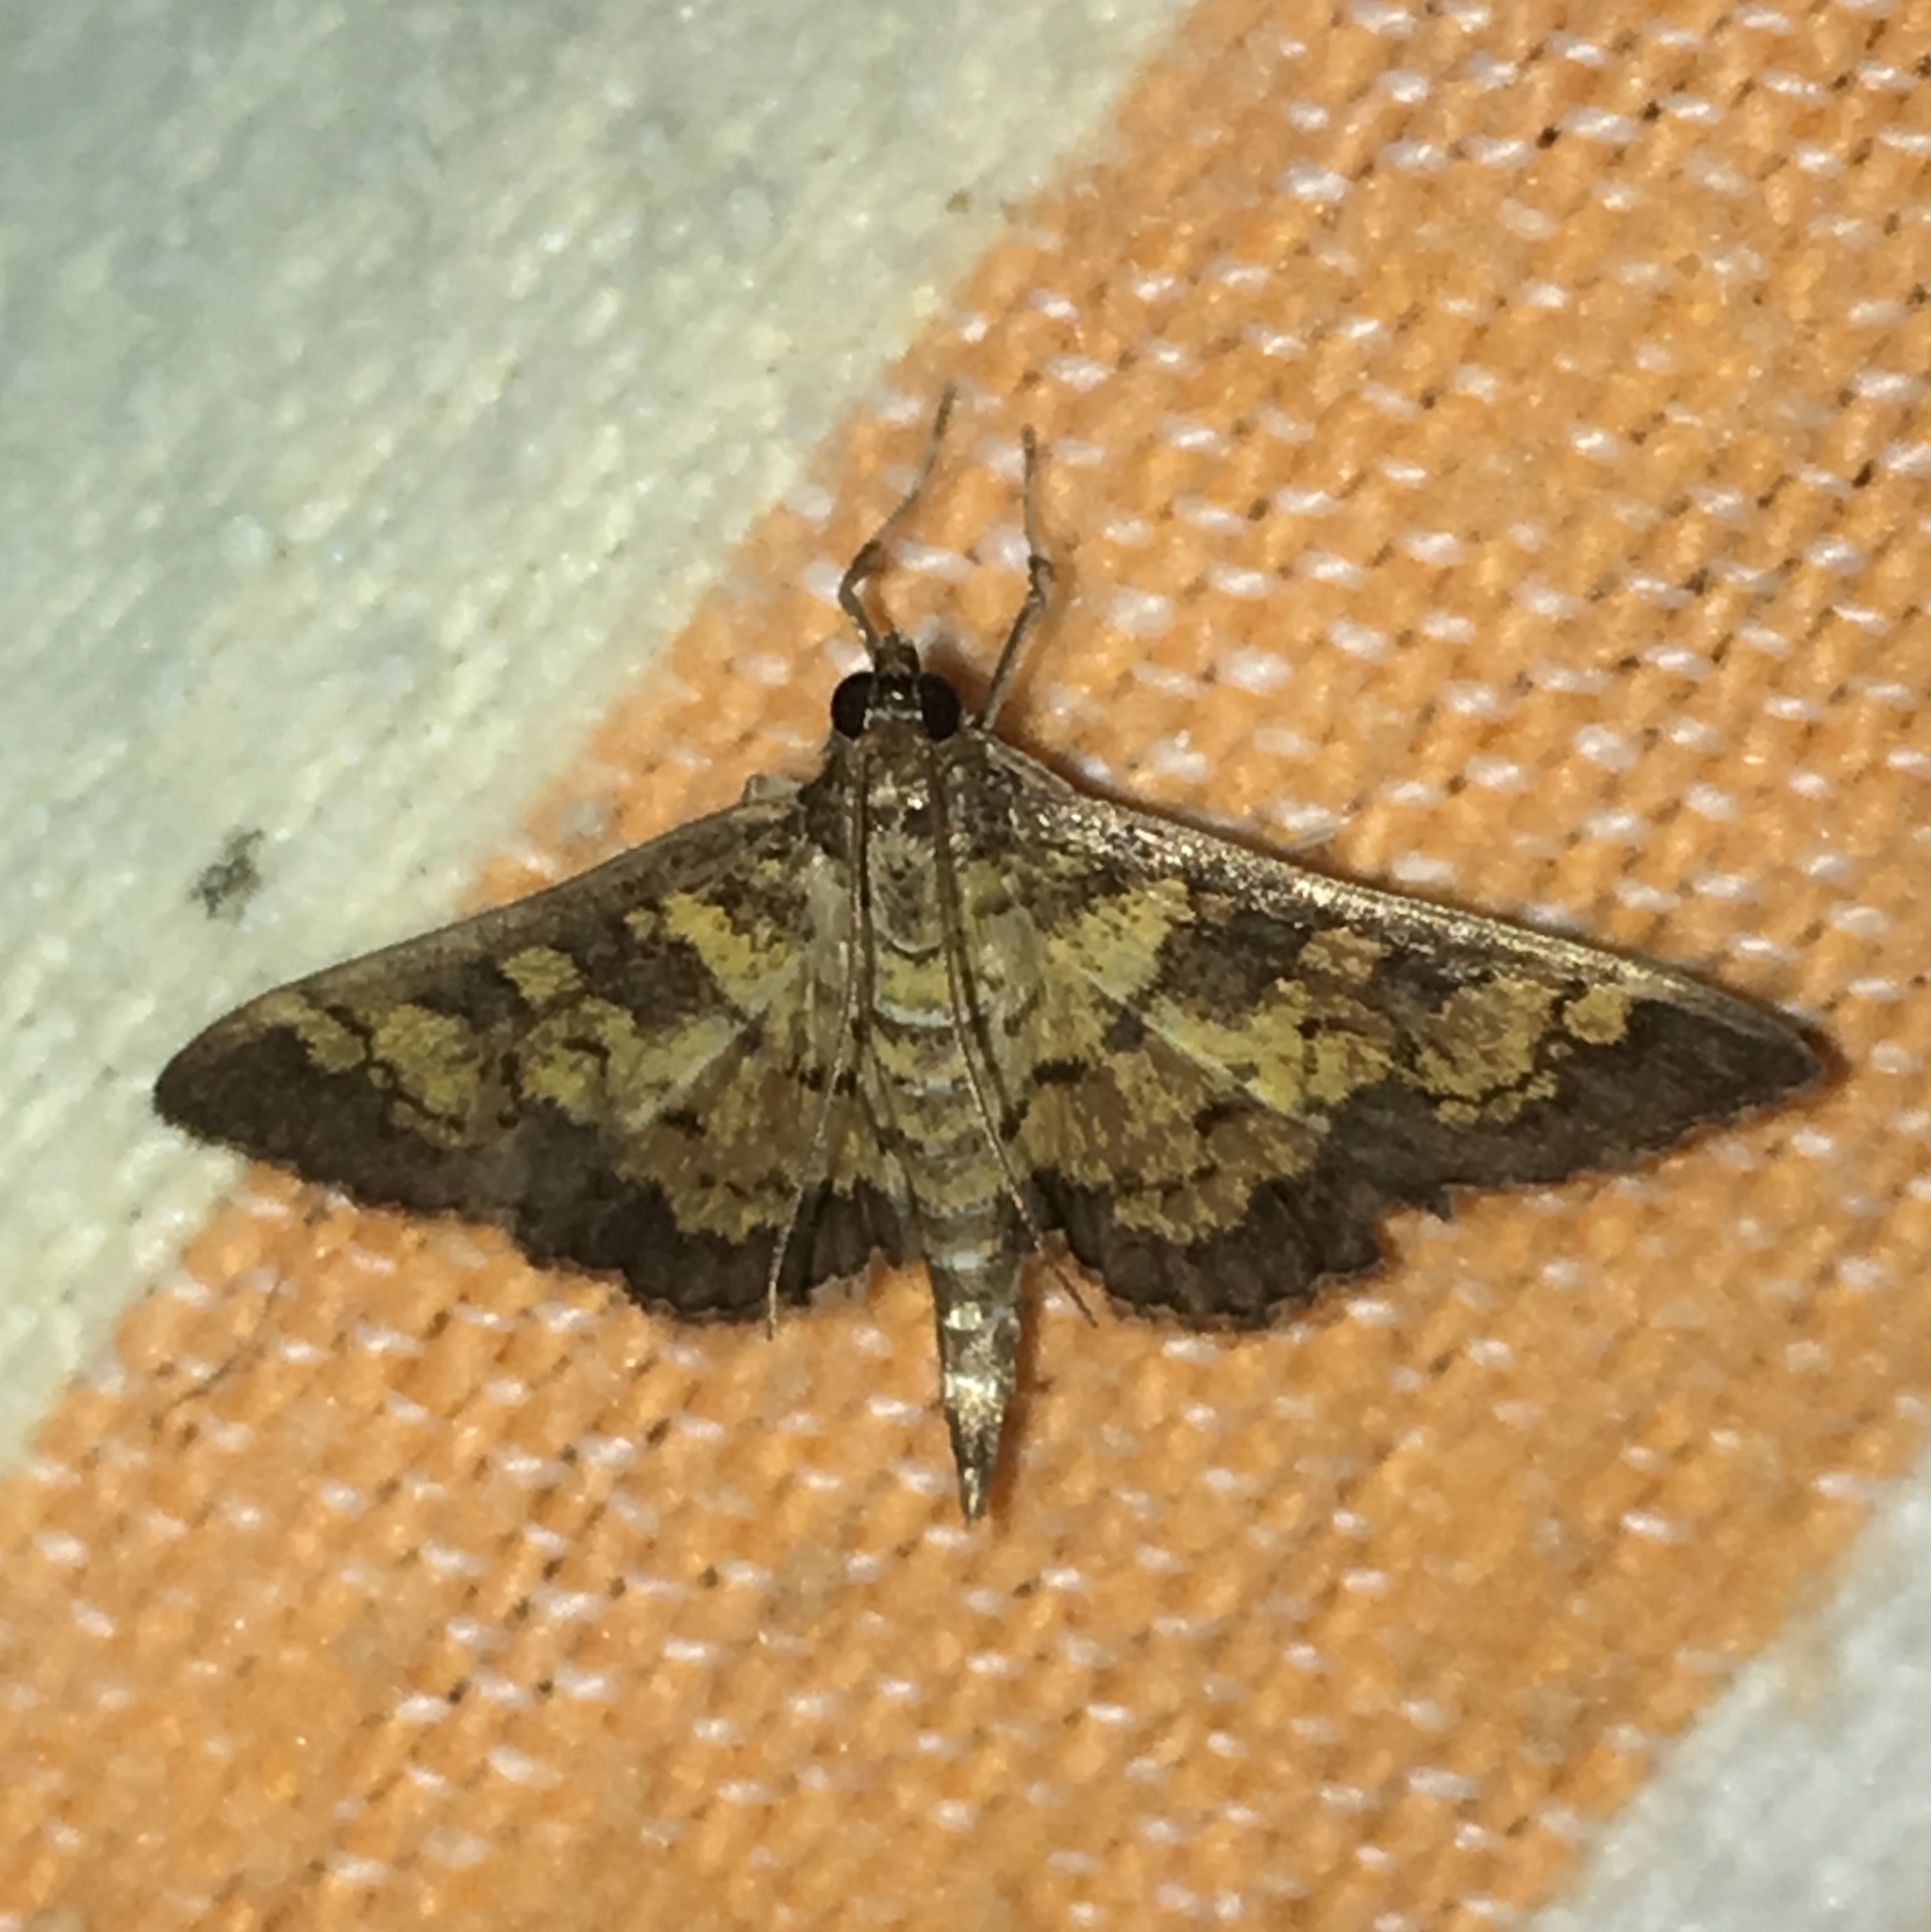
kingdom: Animalia
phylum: Arthropoda
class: Insecta
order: Lepidoptera
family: Crambidae
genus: Epipagis
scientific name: Epipagis adipaloides
